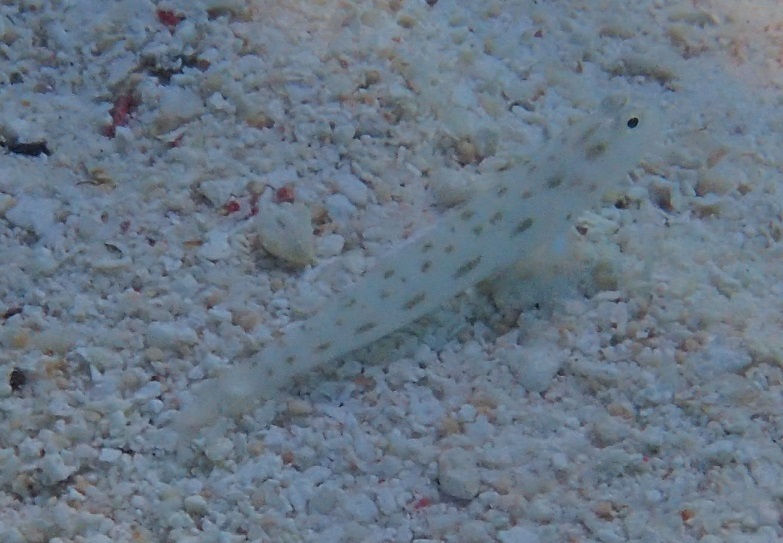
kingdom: Animalia
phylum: Chordata
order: Perciformes
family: Gobiidae
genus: Ctenogobiops
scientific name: Ctenogobiops feroculus
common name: Fierce shrimpgoby
